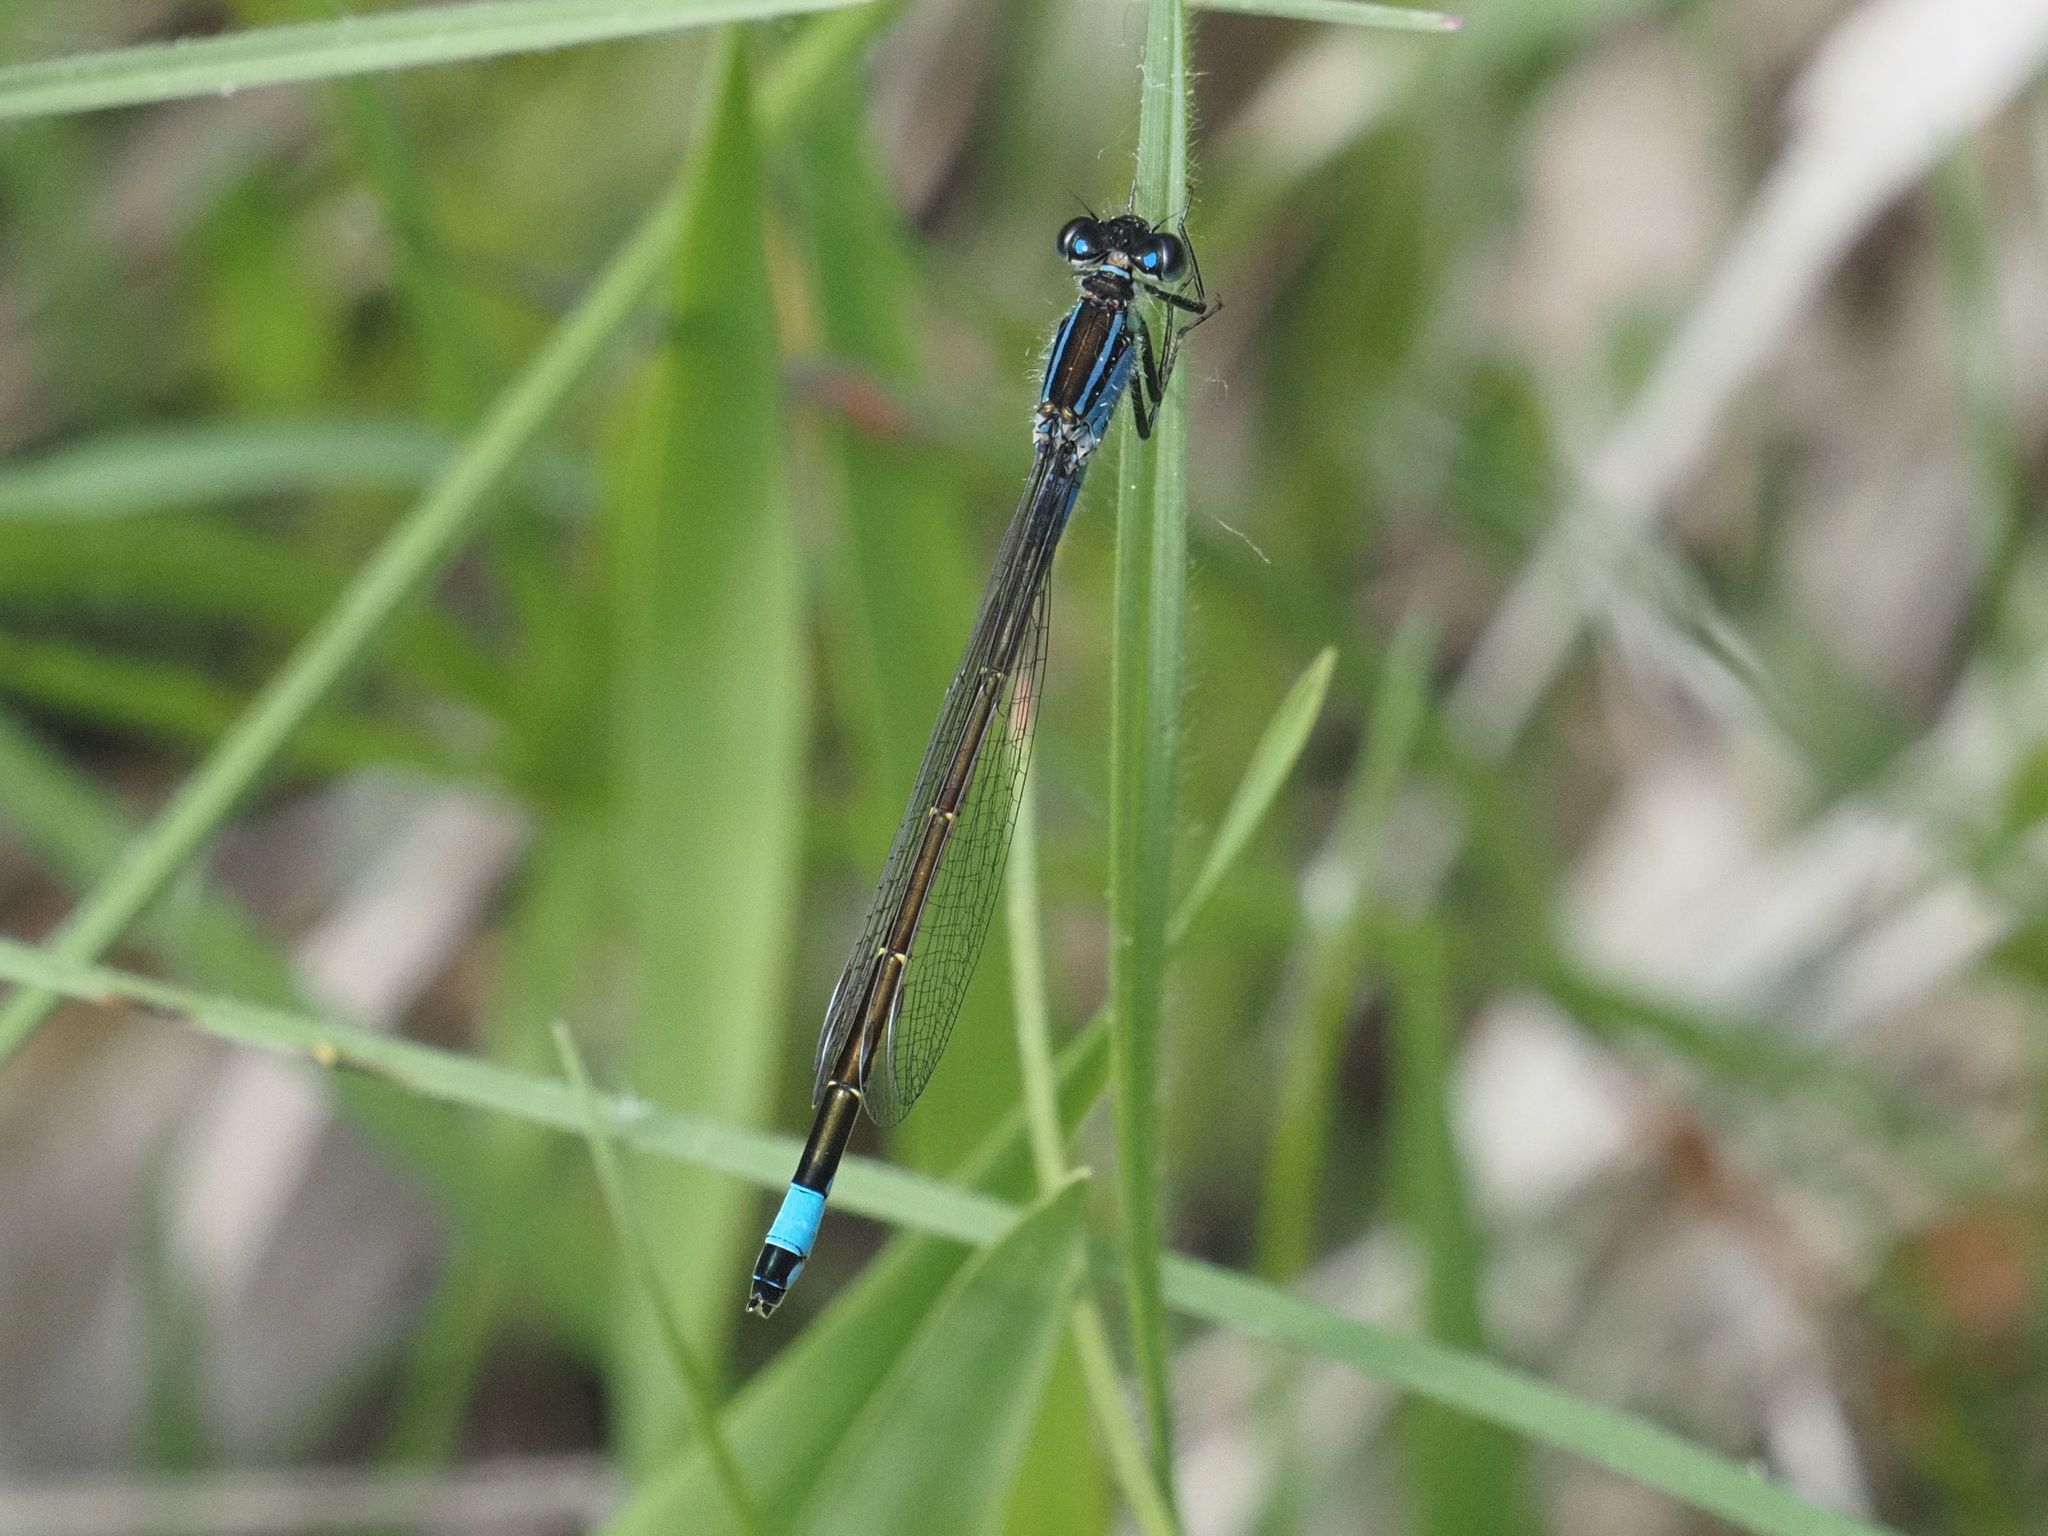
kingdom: Animalia
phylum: Arthropoda
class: Insecta
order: Odonata
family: Coenagrionidae
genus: Ischnura
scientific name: Ischnura elegans
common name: Blue-tailed damselfly
